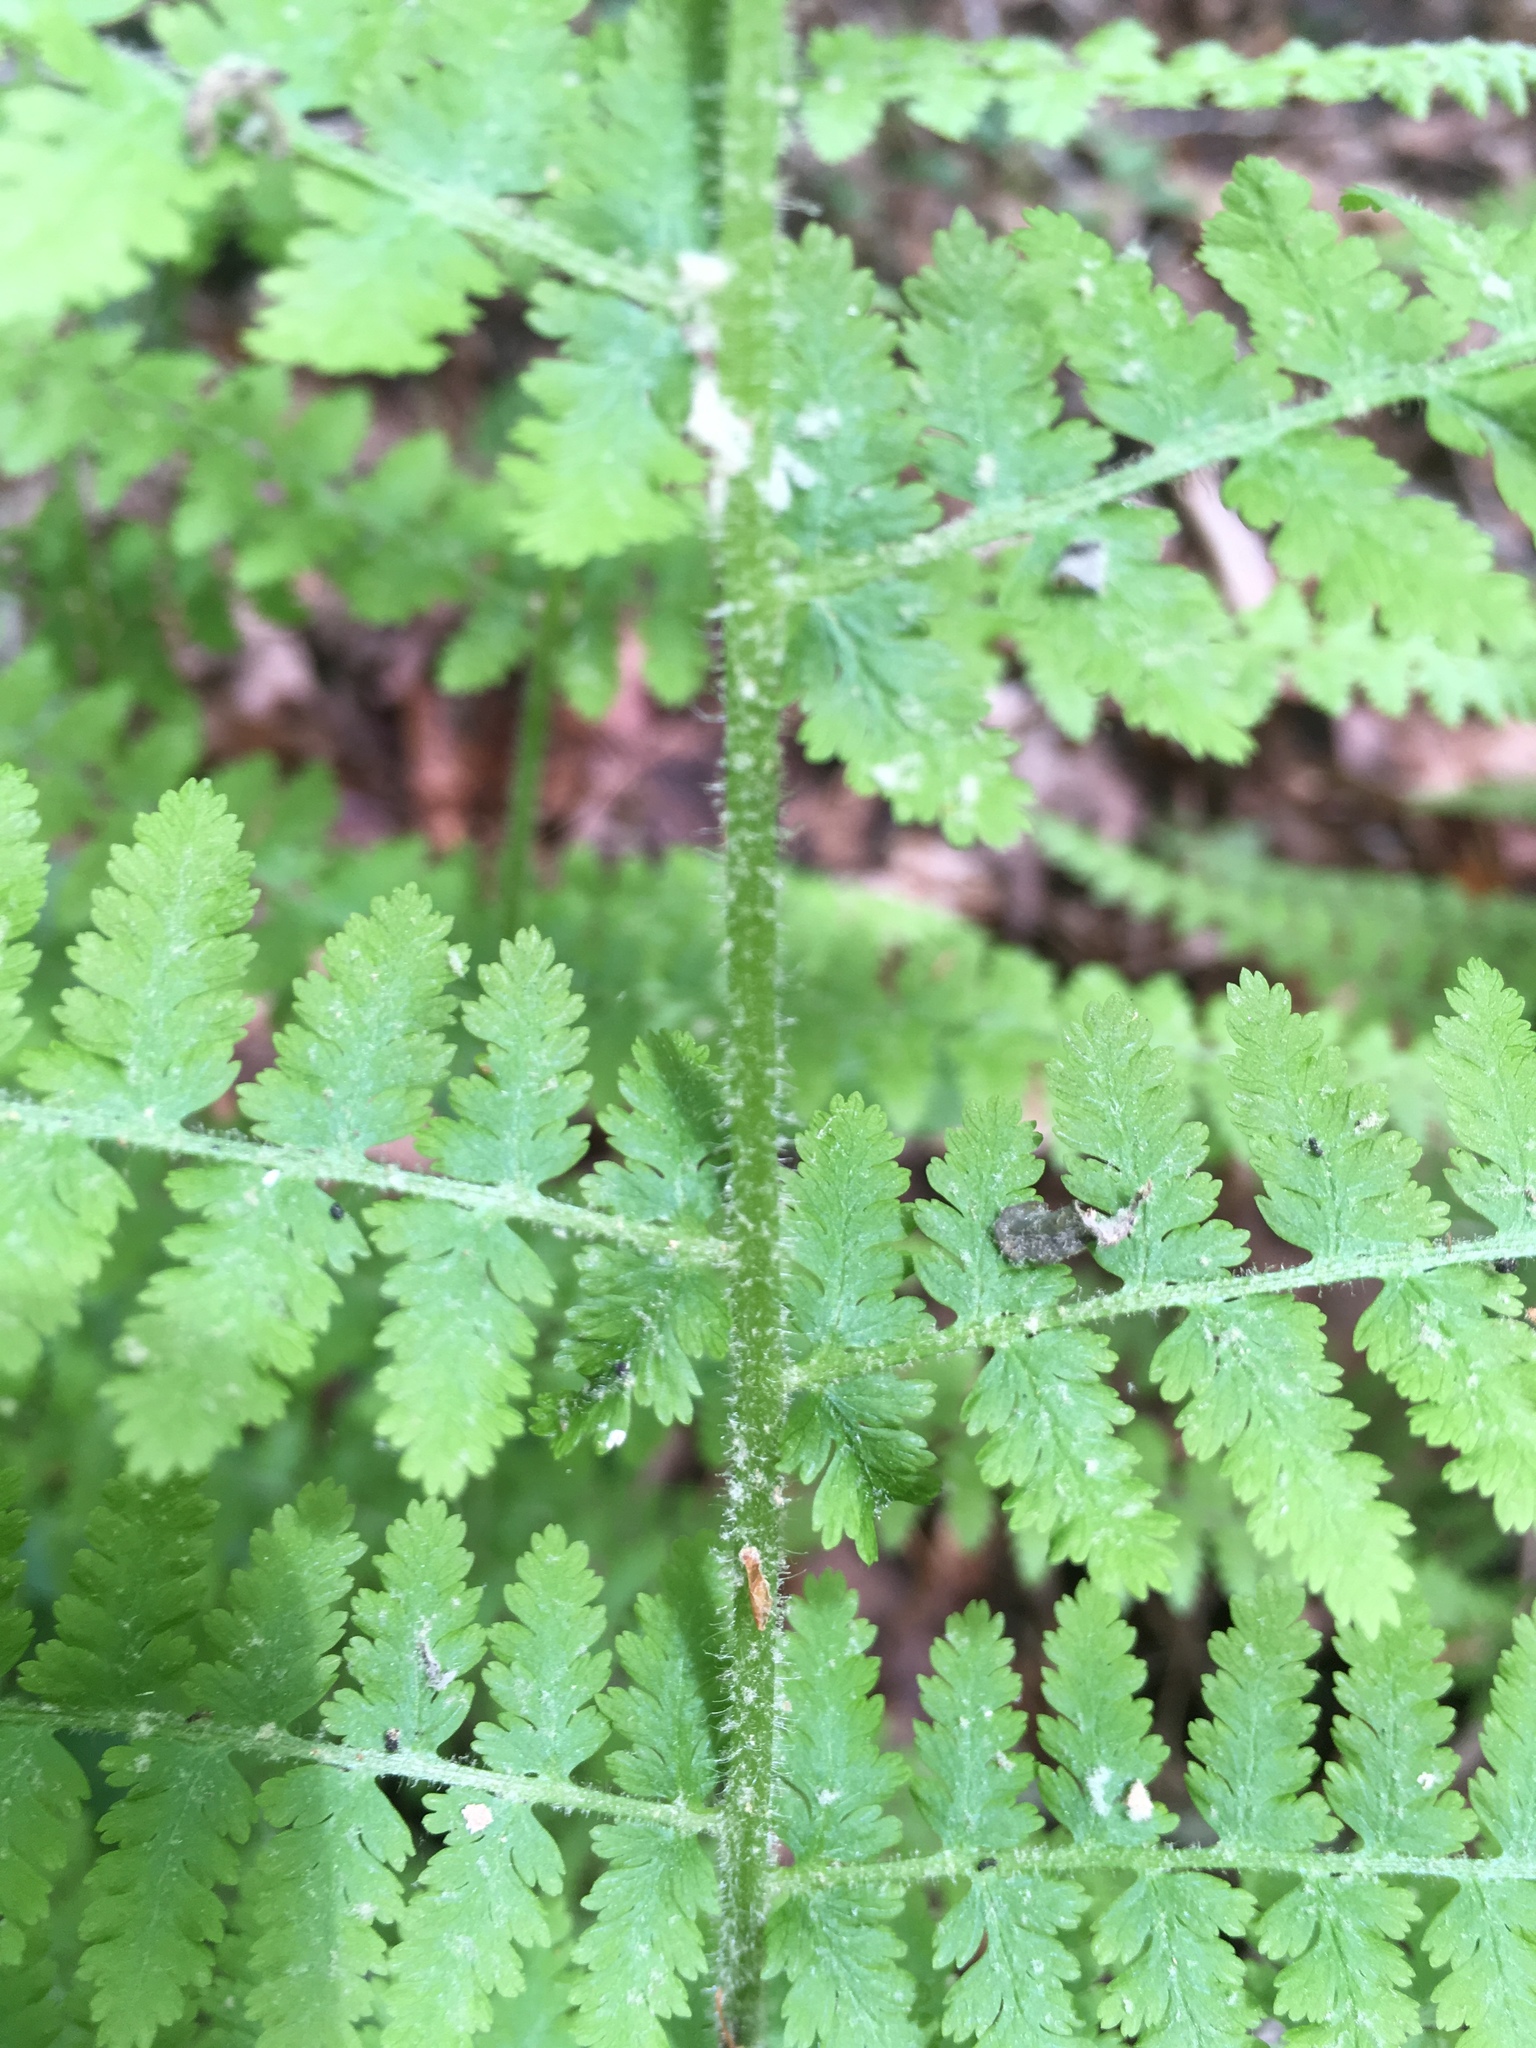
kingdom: Plantae
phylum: Tracheophyta
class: Polypodiopsida
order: Polypodiales
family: Dennstaedtiaceae
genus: Sitobolium
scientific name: Sitobolium punctilobum
